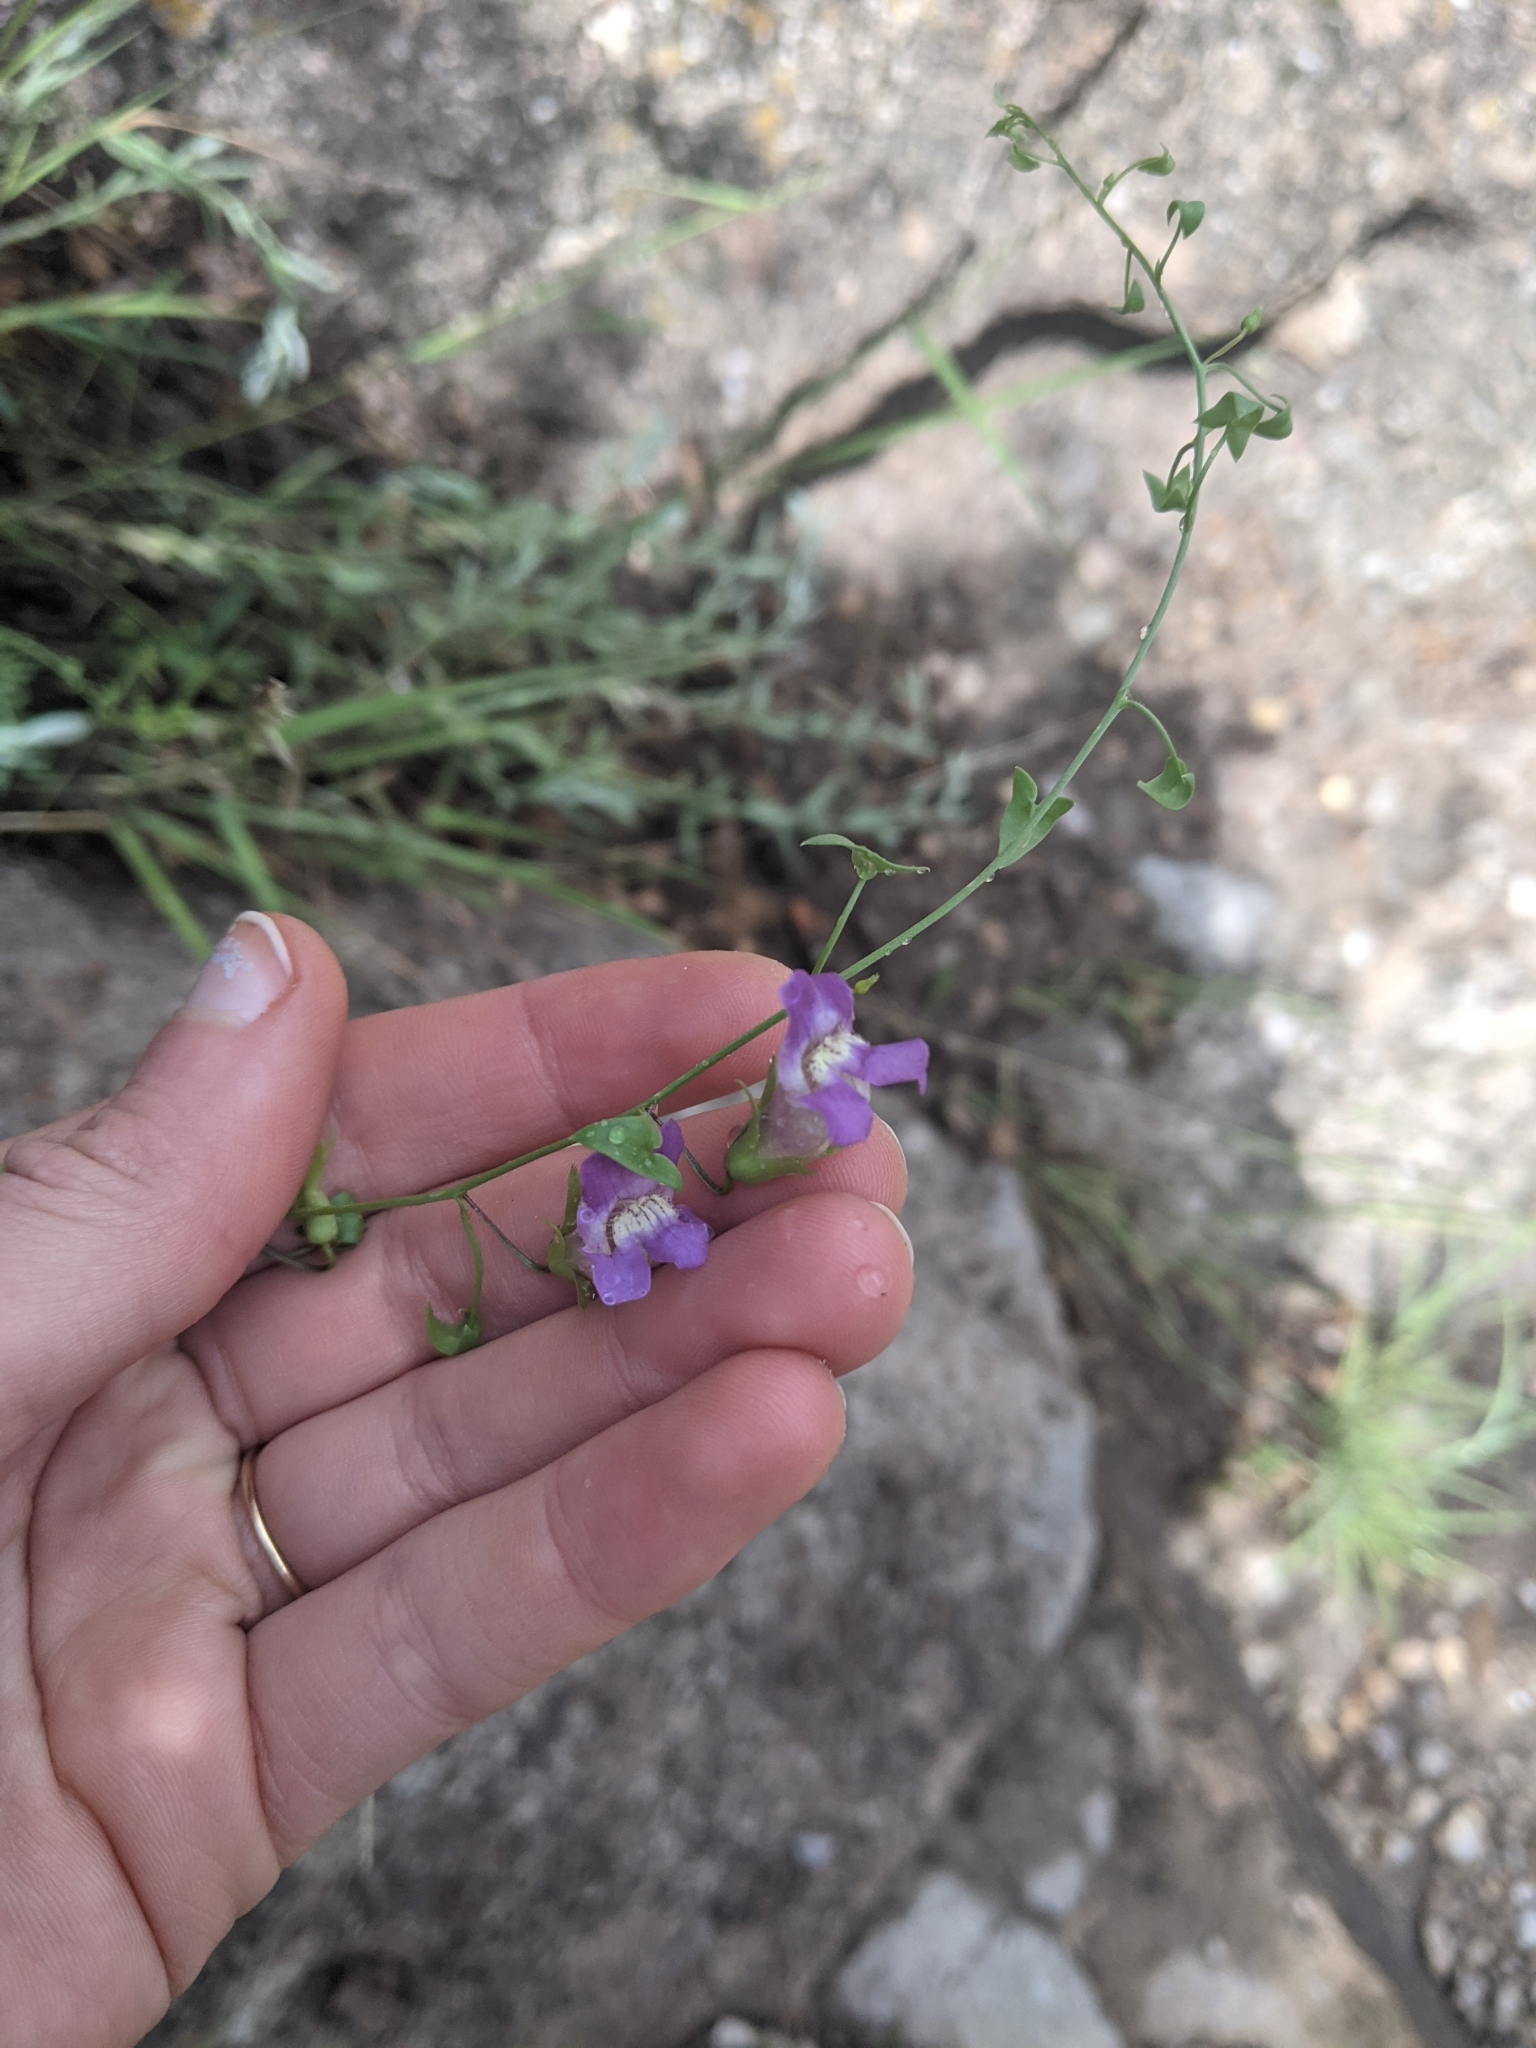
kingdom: Plantae
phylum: Tracheophyta
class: Magnoliopsida
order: Lamiales
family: Plantaginaceae
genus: Maurandella
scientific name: Maurandella antirrhiniflora
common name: Violet twining-snapdragon
